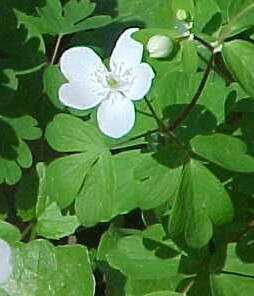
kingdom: Plantae
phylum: Tracheophyta
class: Magnoliopsida
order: Ranunculales
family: Ranunculaceae
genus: Enemion
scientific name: Enemion biternatum
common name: Eastern false rue-anemone
